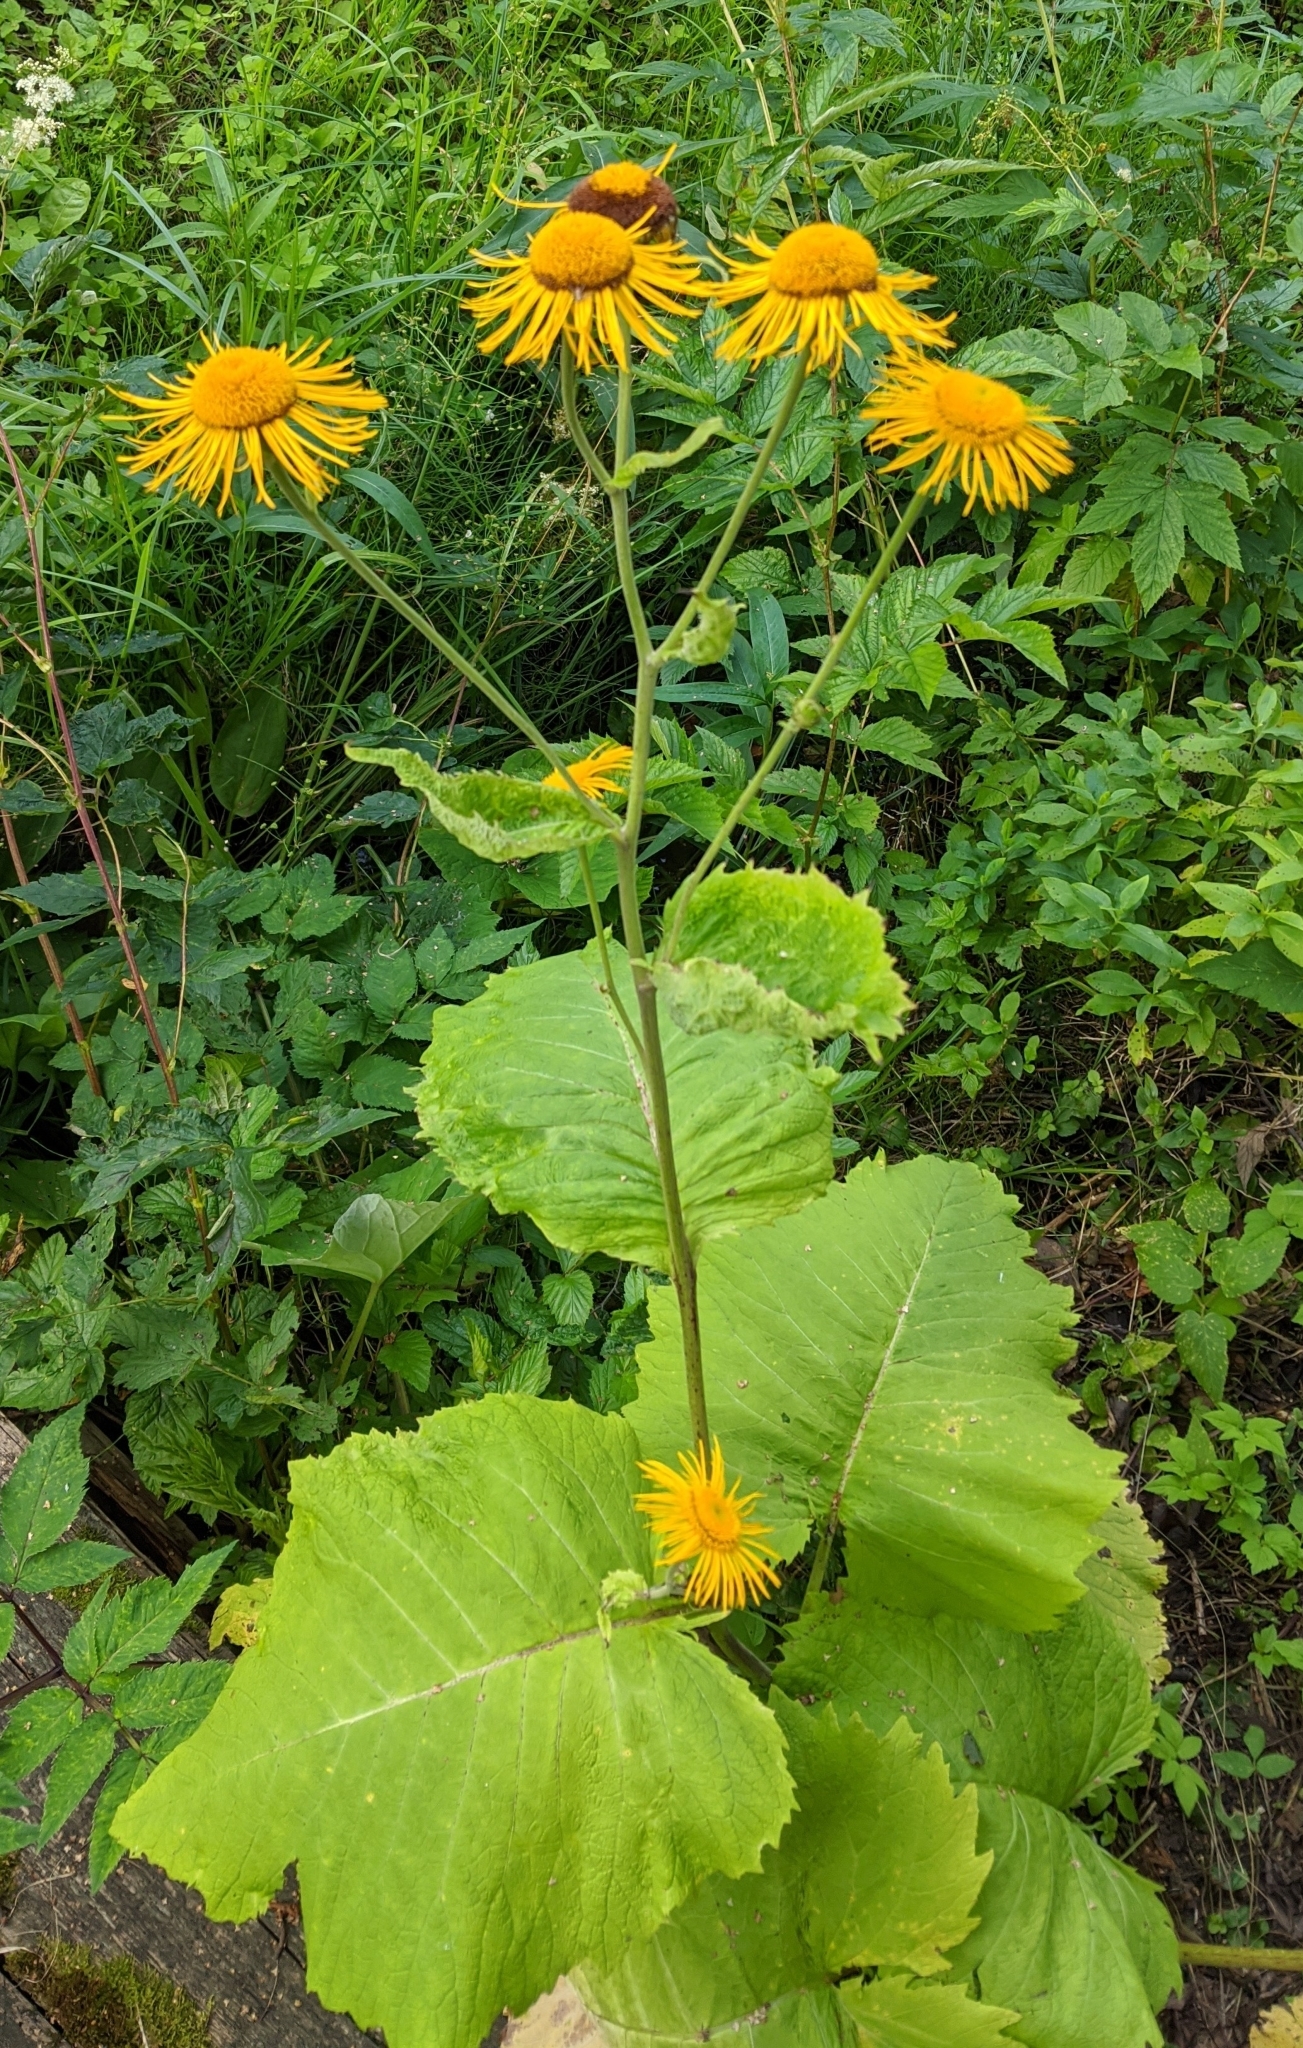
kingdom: Plantae
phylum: Tracheophyta
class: Magnoliopsida
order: Asterales
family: Asteraceae
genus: Telekia
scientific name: Telekia speciosa
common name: Yellow oxeye
